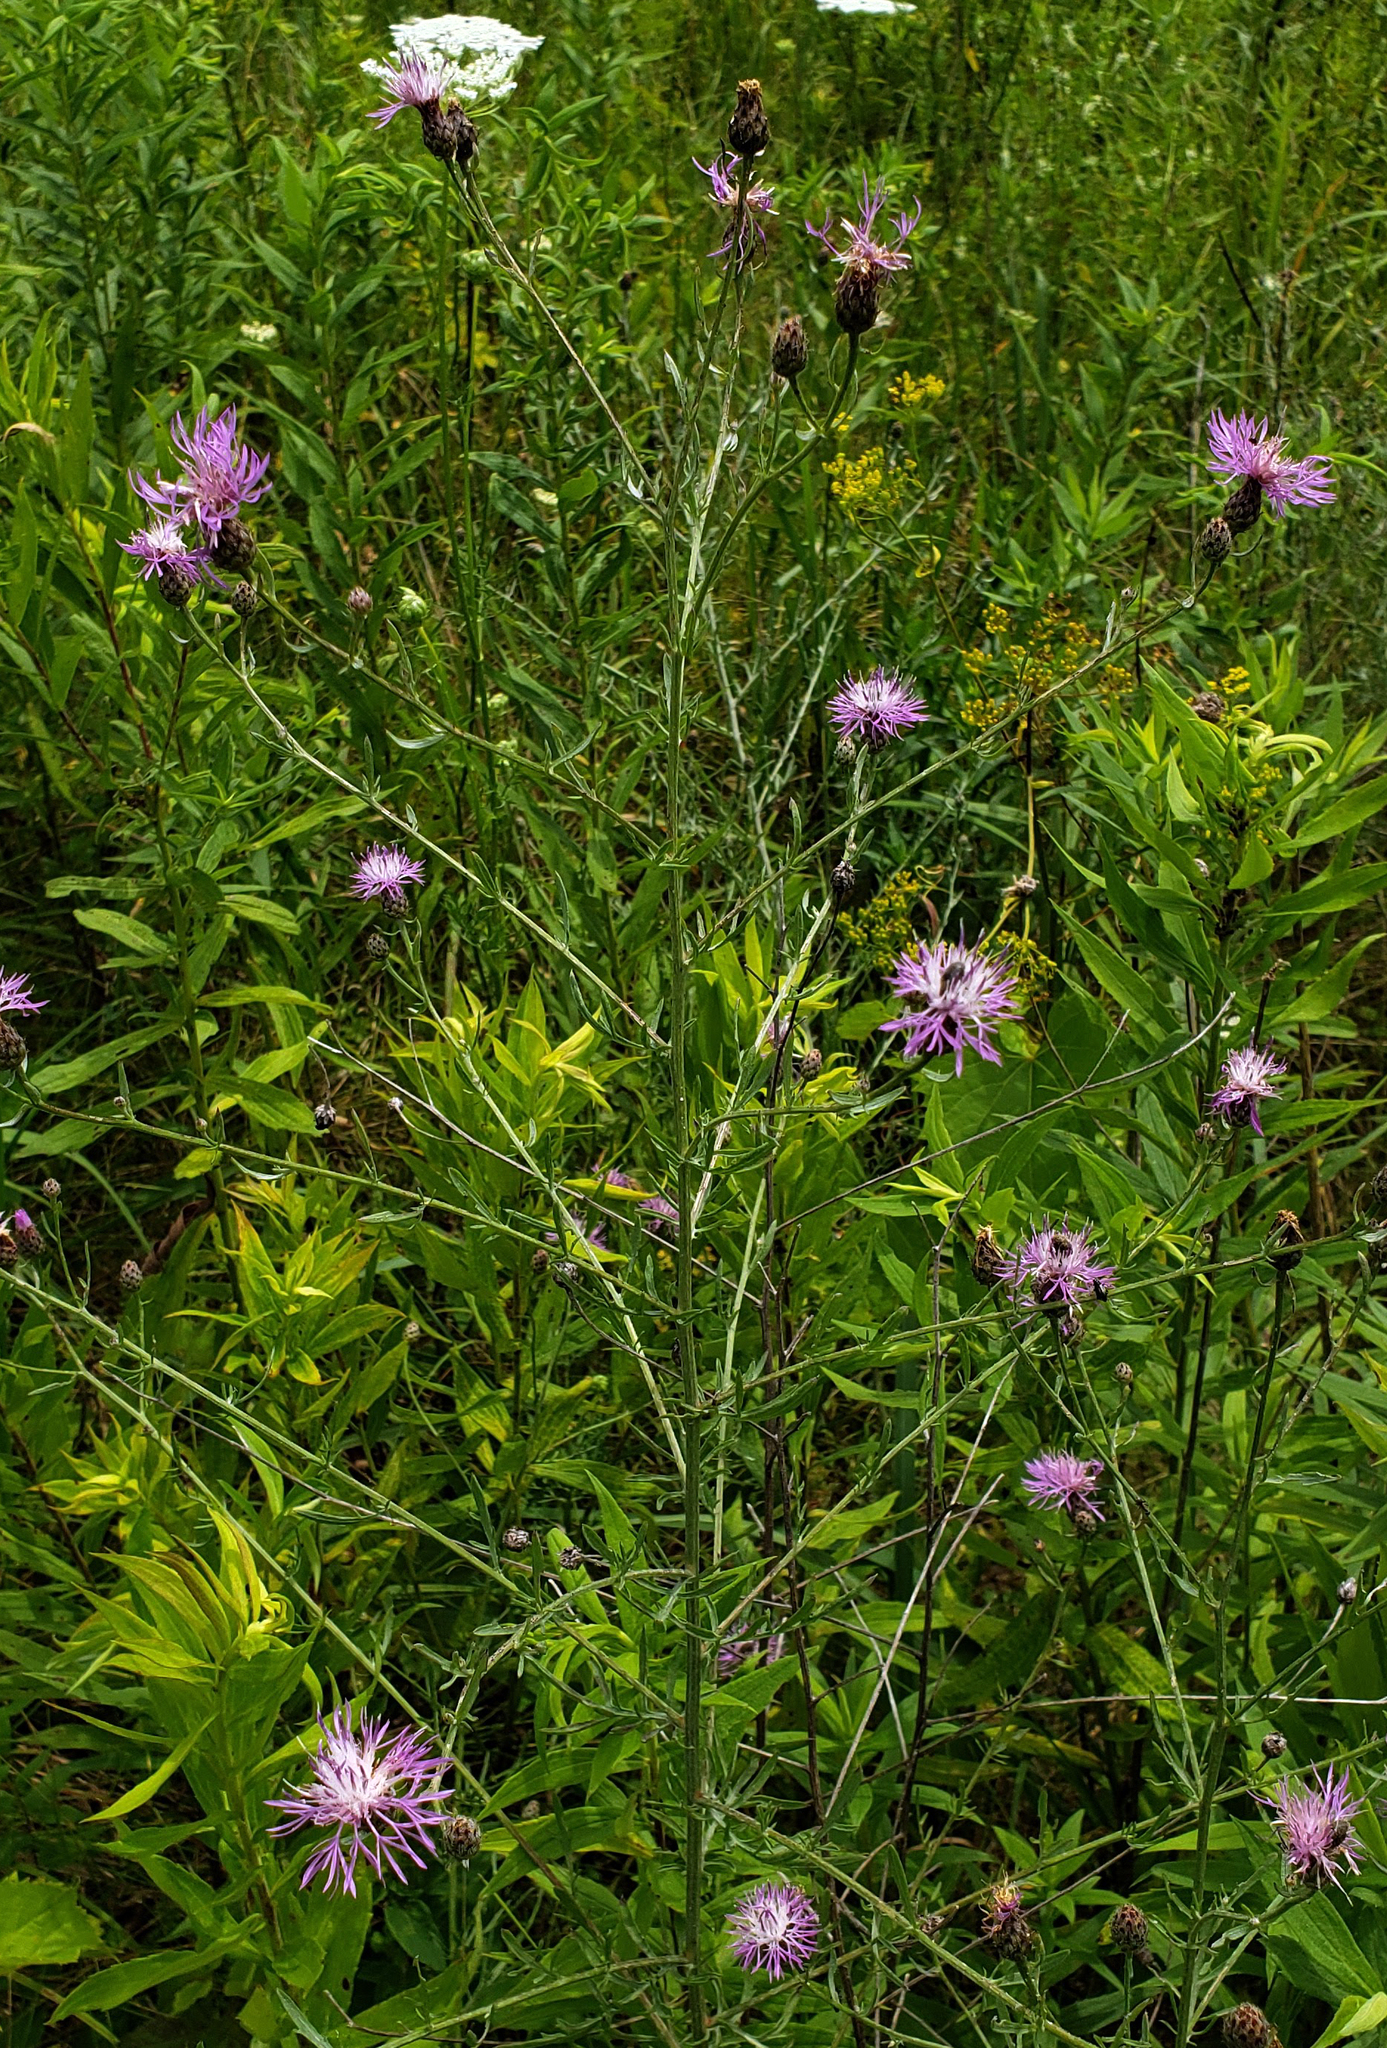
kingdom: Plantae
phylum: Tracheophyta
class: Magnoliopsida
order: Asterales
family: Asteraceae
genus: Centaurea
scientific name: Centaurea stoebe
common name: Spotted knapweed
